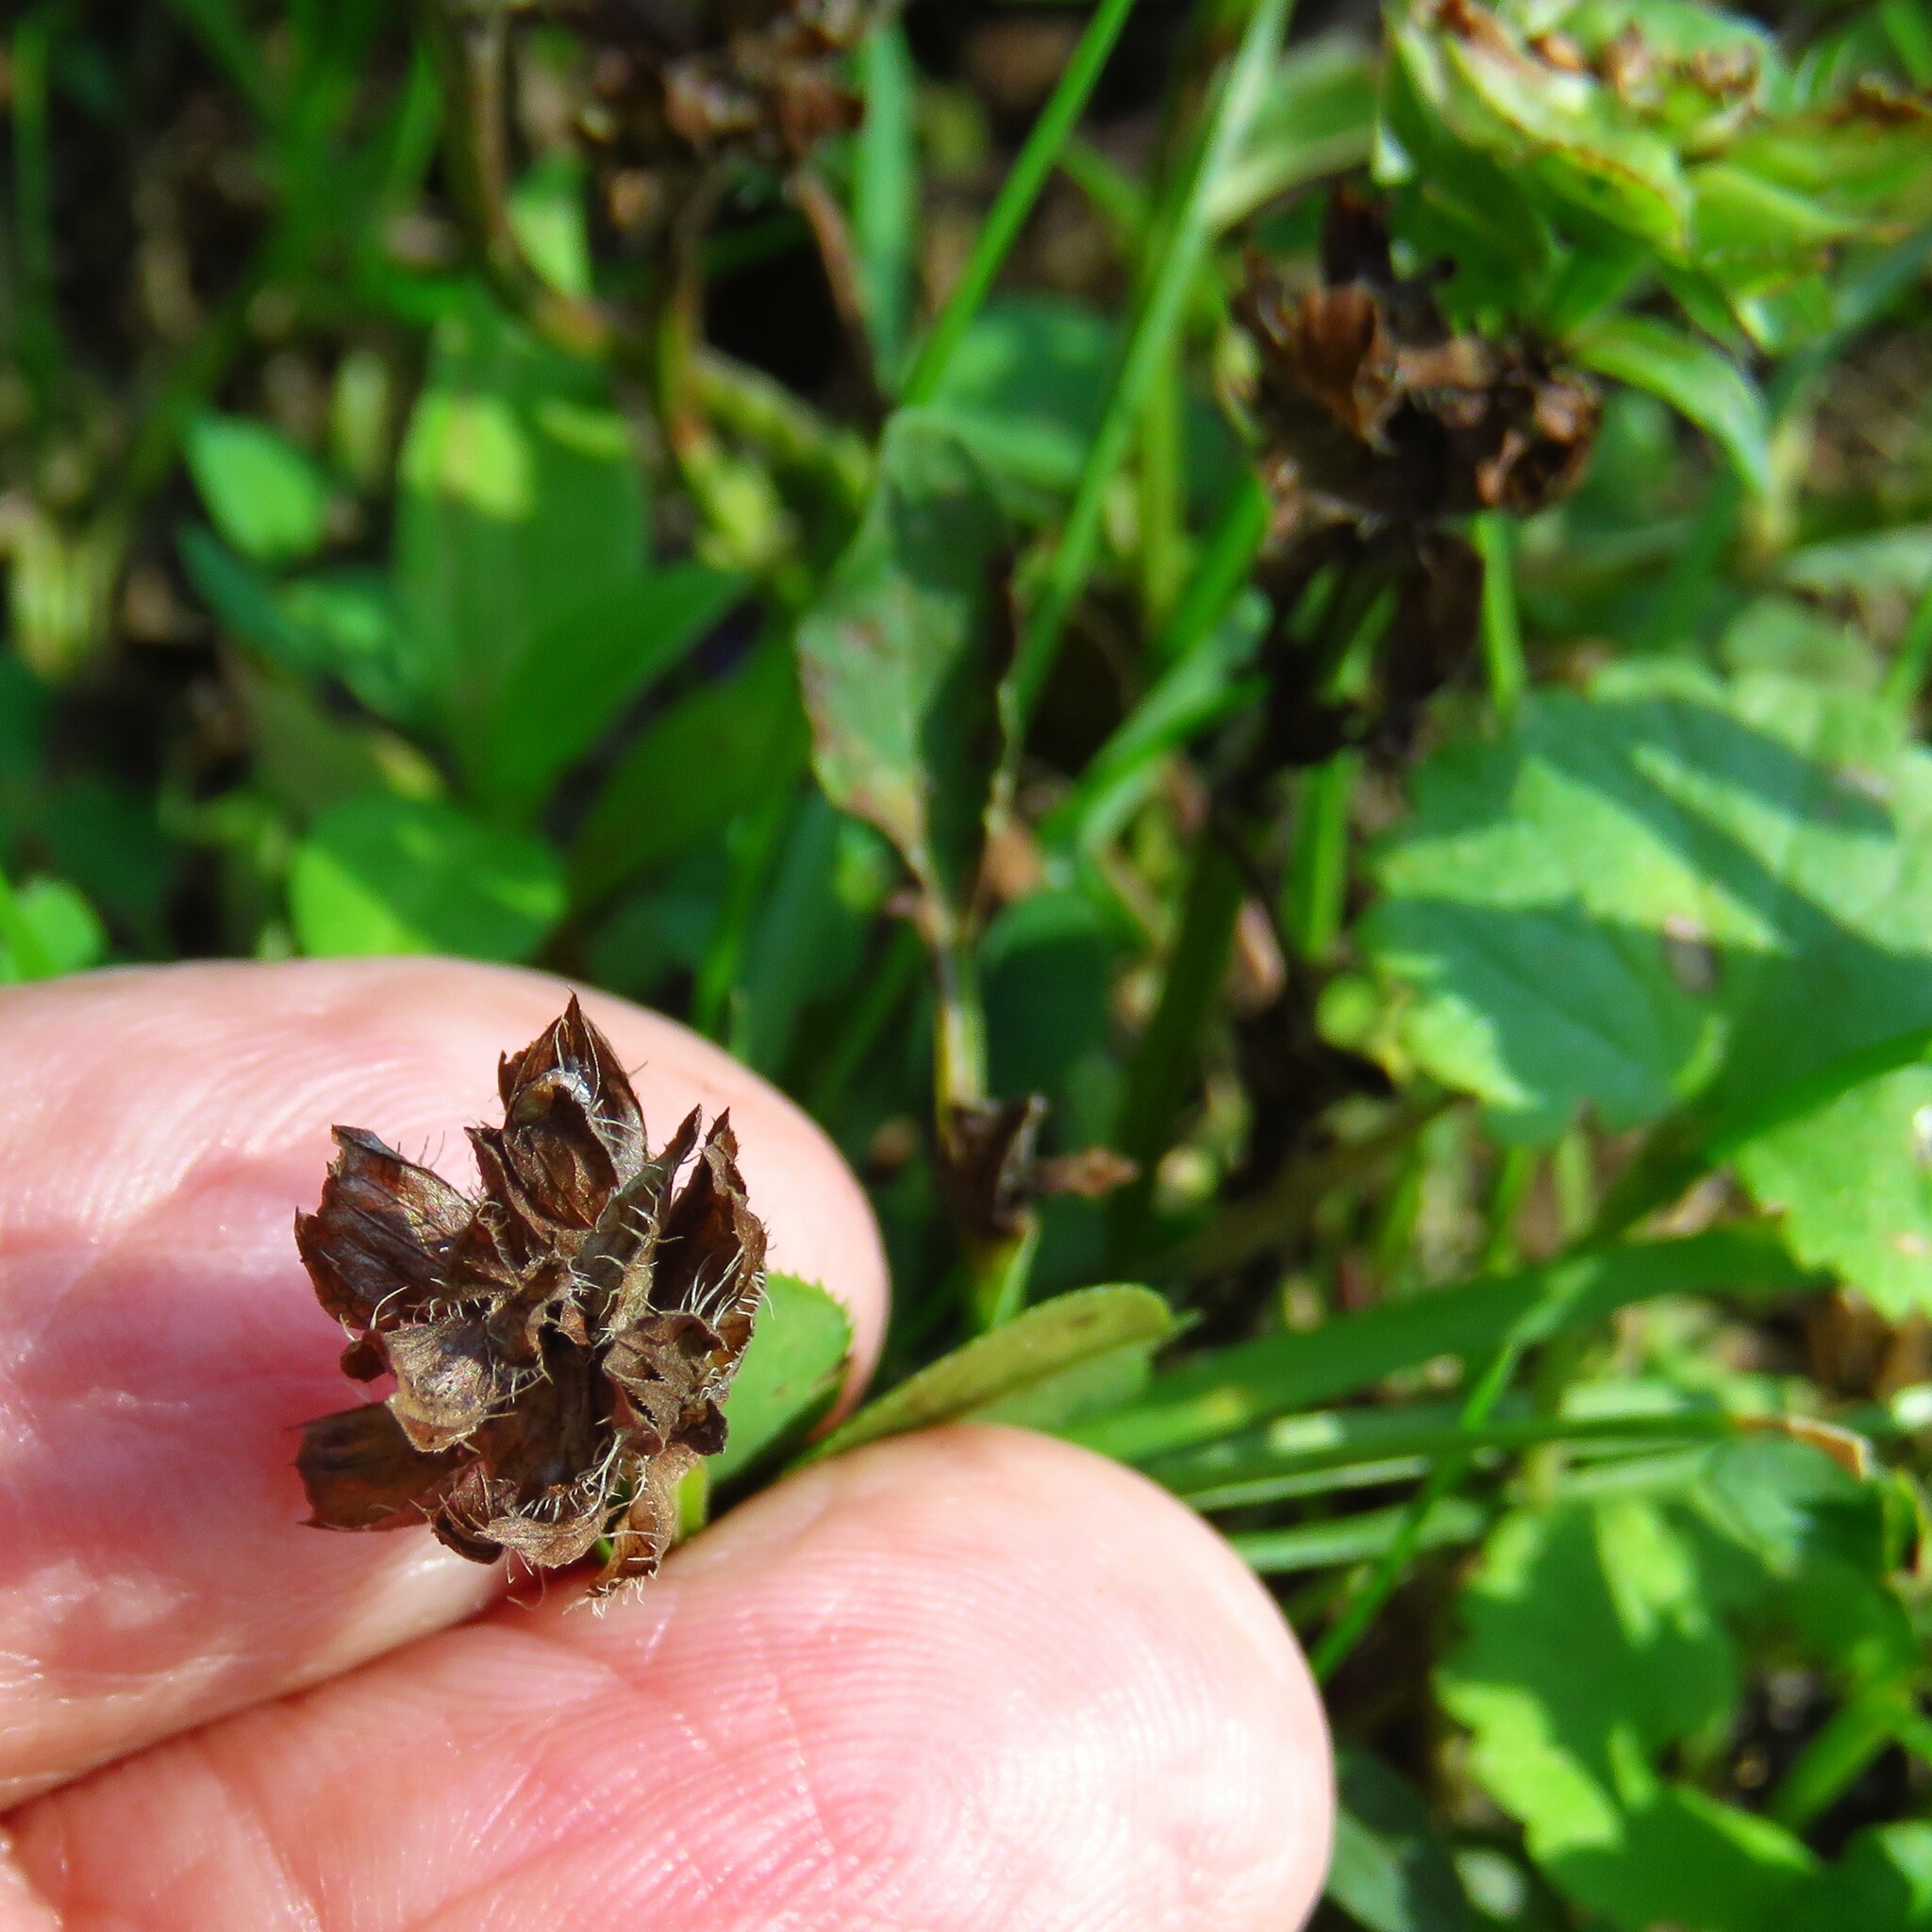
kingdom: Plantae
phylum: Tracheophyta
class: Magnoliopsida
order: Lamiales
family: Lamiaceae
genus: Prunella
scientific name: Prunella vulgaris
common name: Heal-all
